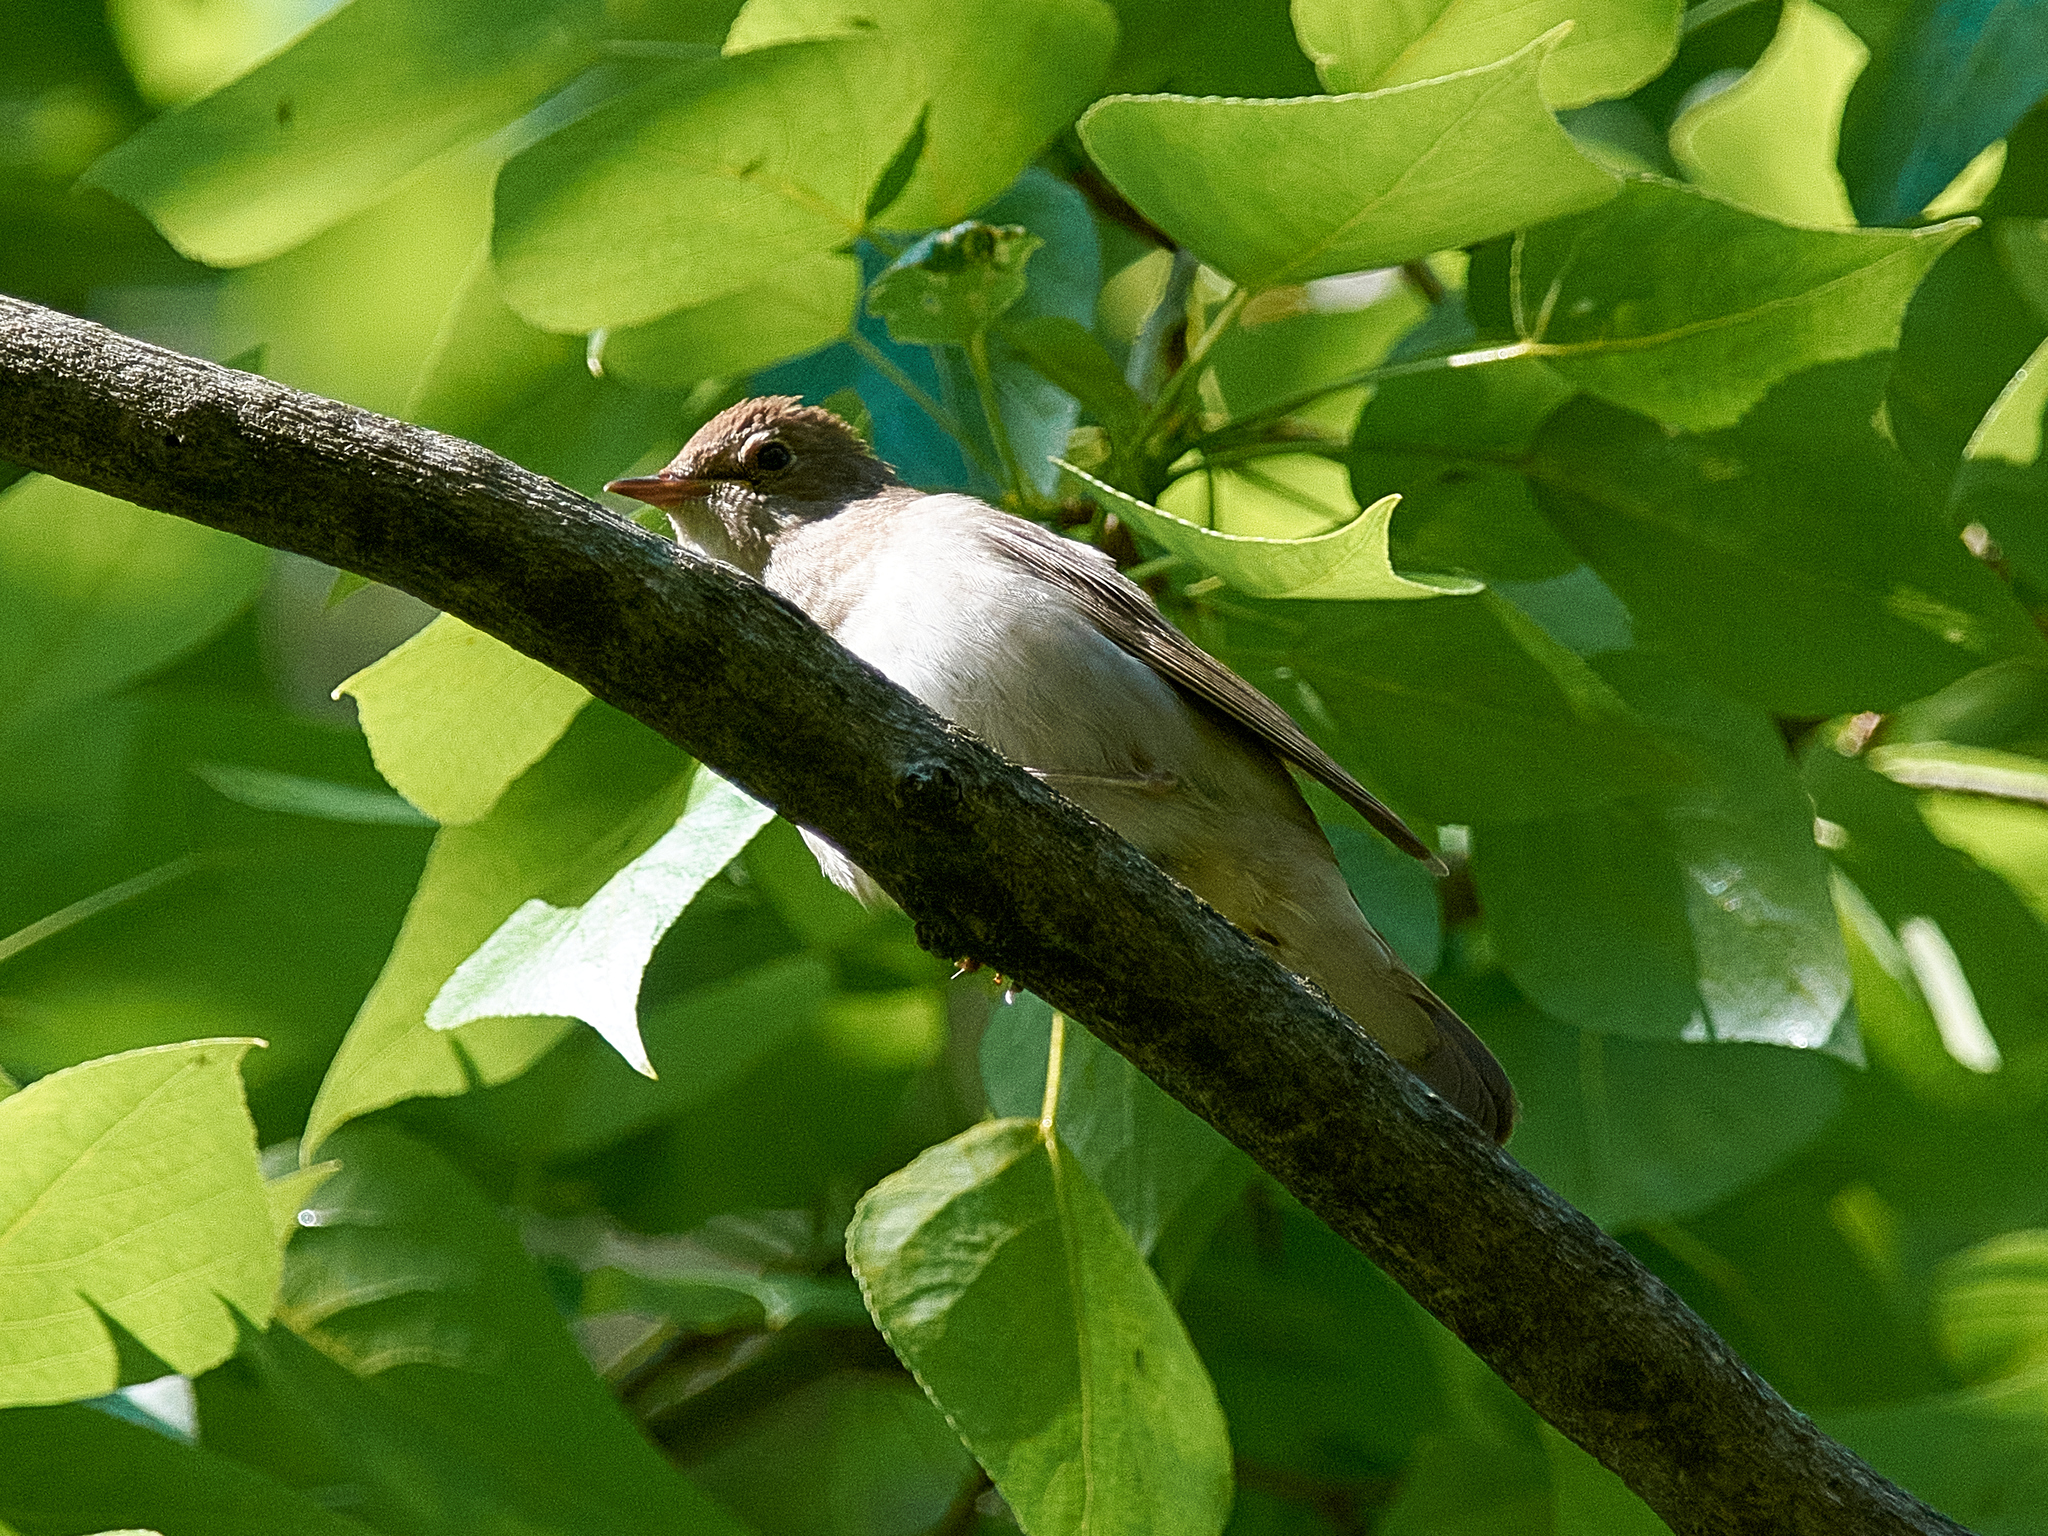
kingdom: Animalia
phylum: Chordata
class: Aves
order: Passeriformes
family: Muscicapidae
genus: Luscinia
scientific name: Luscinia luscinia
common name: Thrush nightingale
